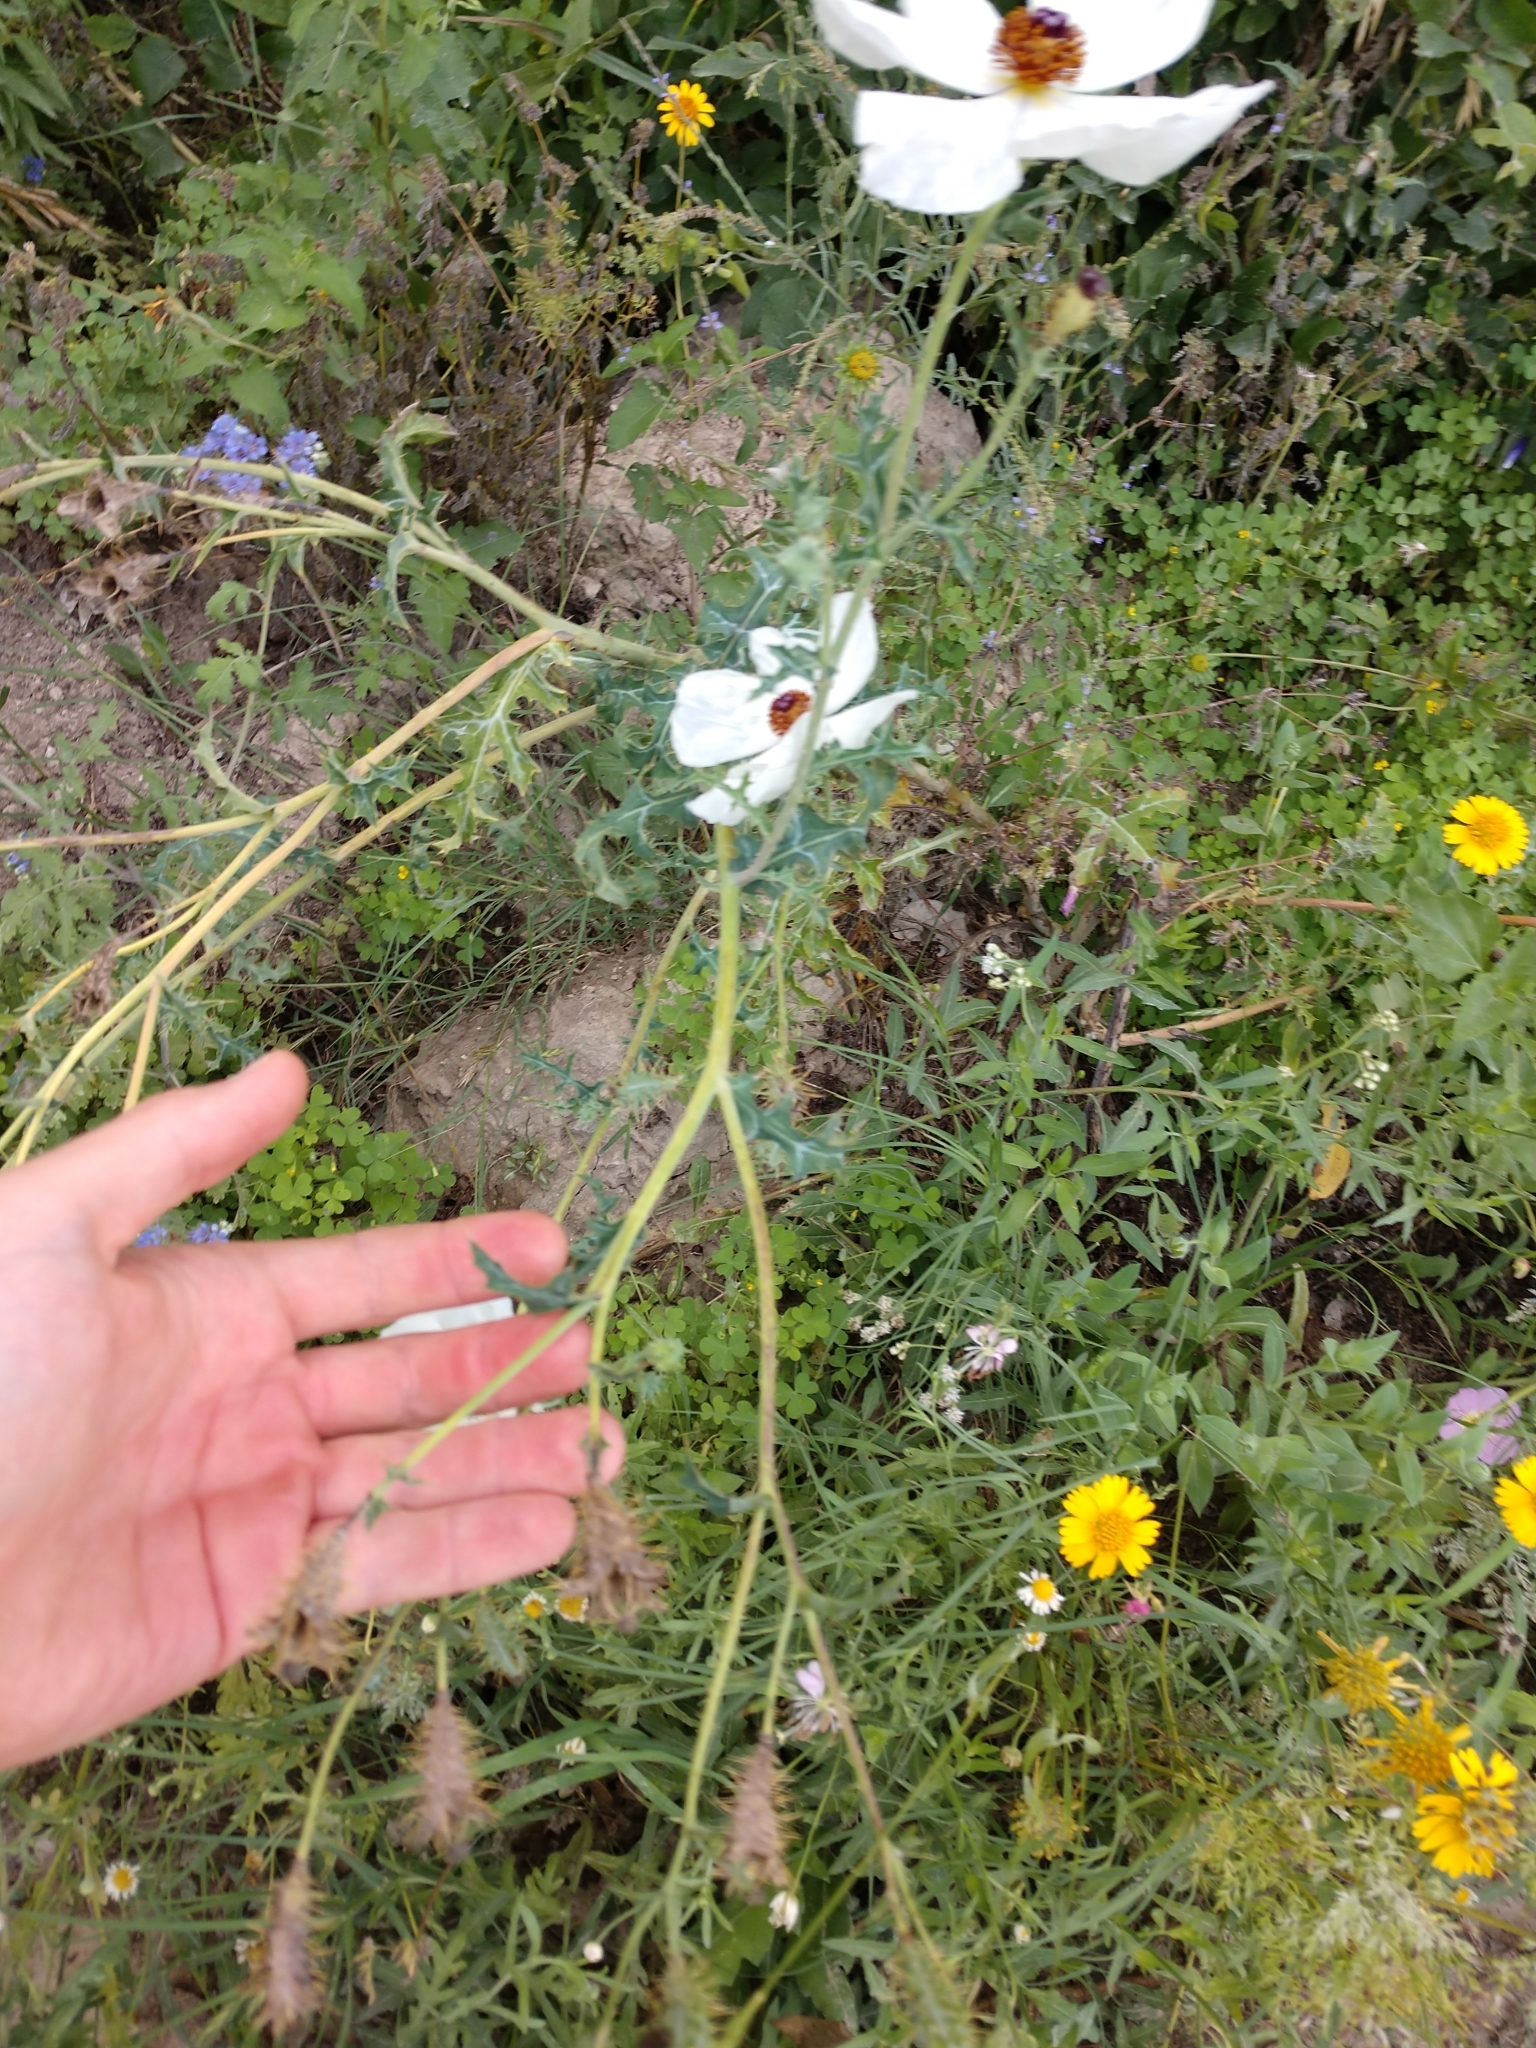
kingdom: Plantae
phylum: Tracheophyta
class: Magnoliopsida
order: Ranunculales
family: Papaveraceae
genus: Argemone
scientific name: Argemone sanguinea
